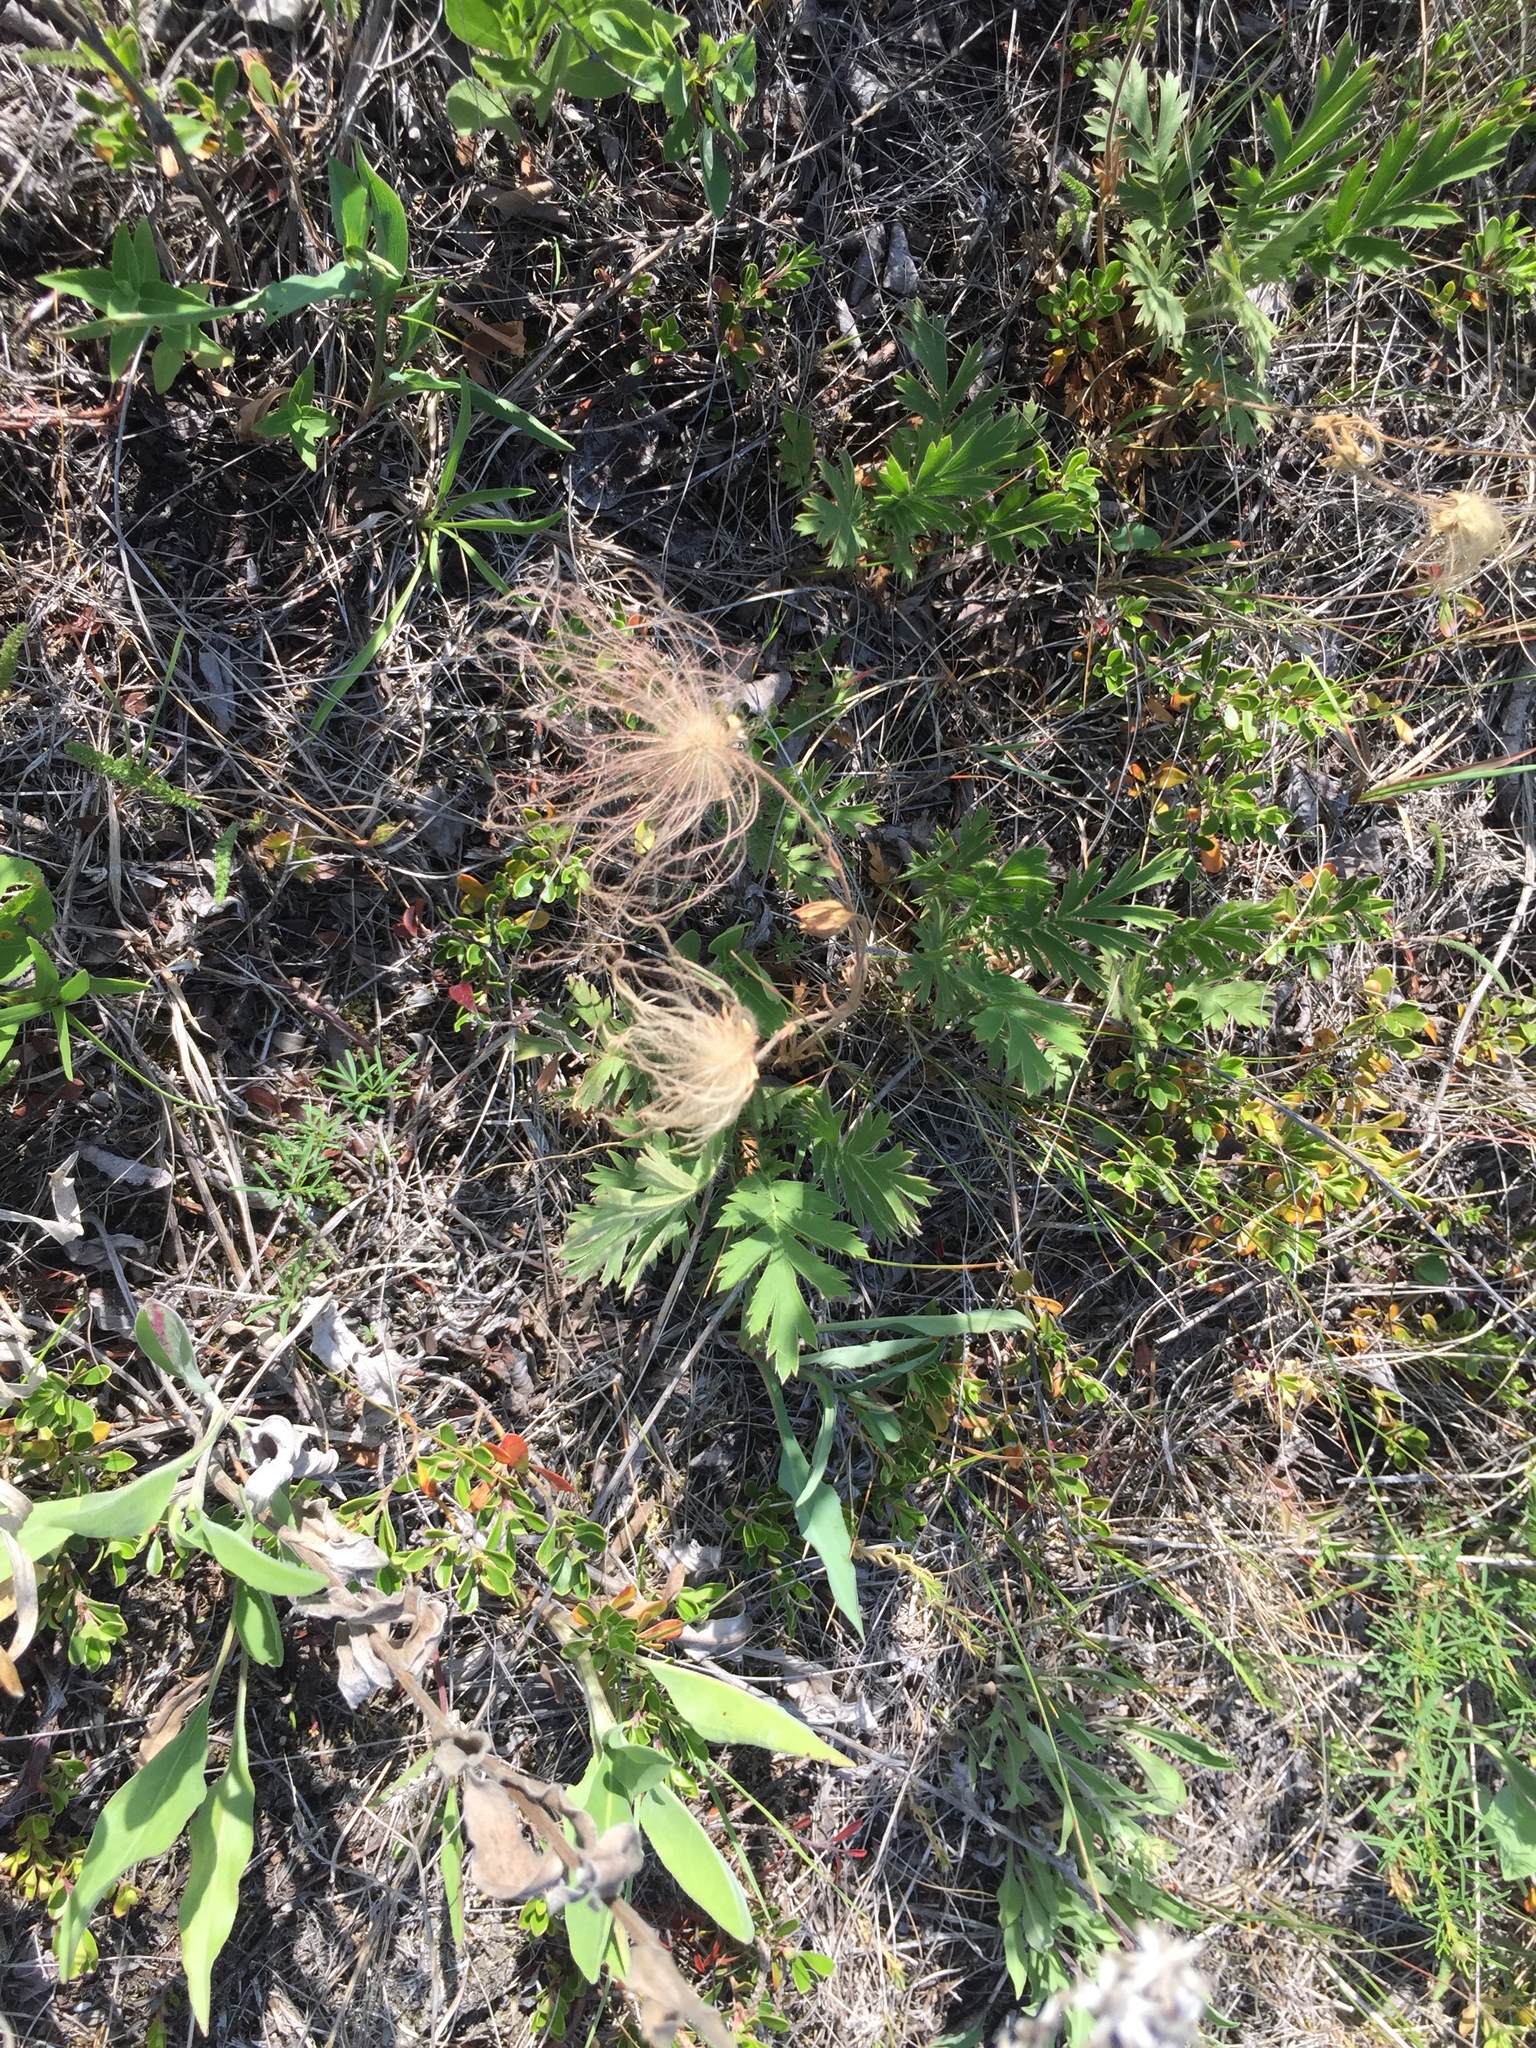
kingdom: Plantae
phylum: Tracheophyta
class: Magnoliopsida
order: Rosales
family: Rosaceae
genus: Geum
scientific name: Geum triflorum
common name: Old man's whiskers
